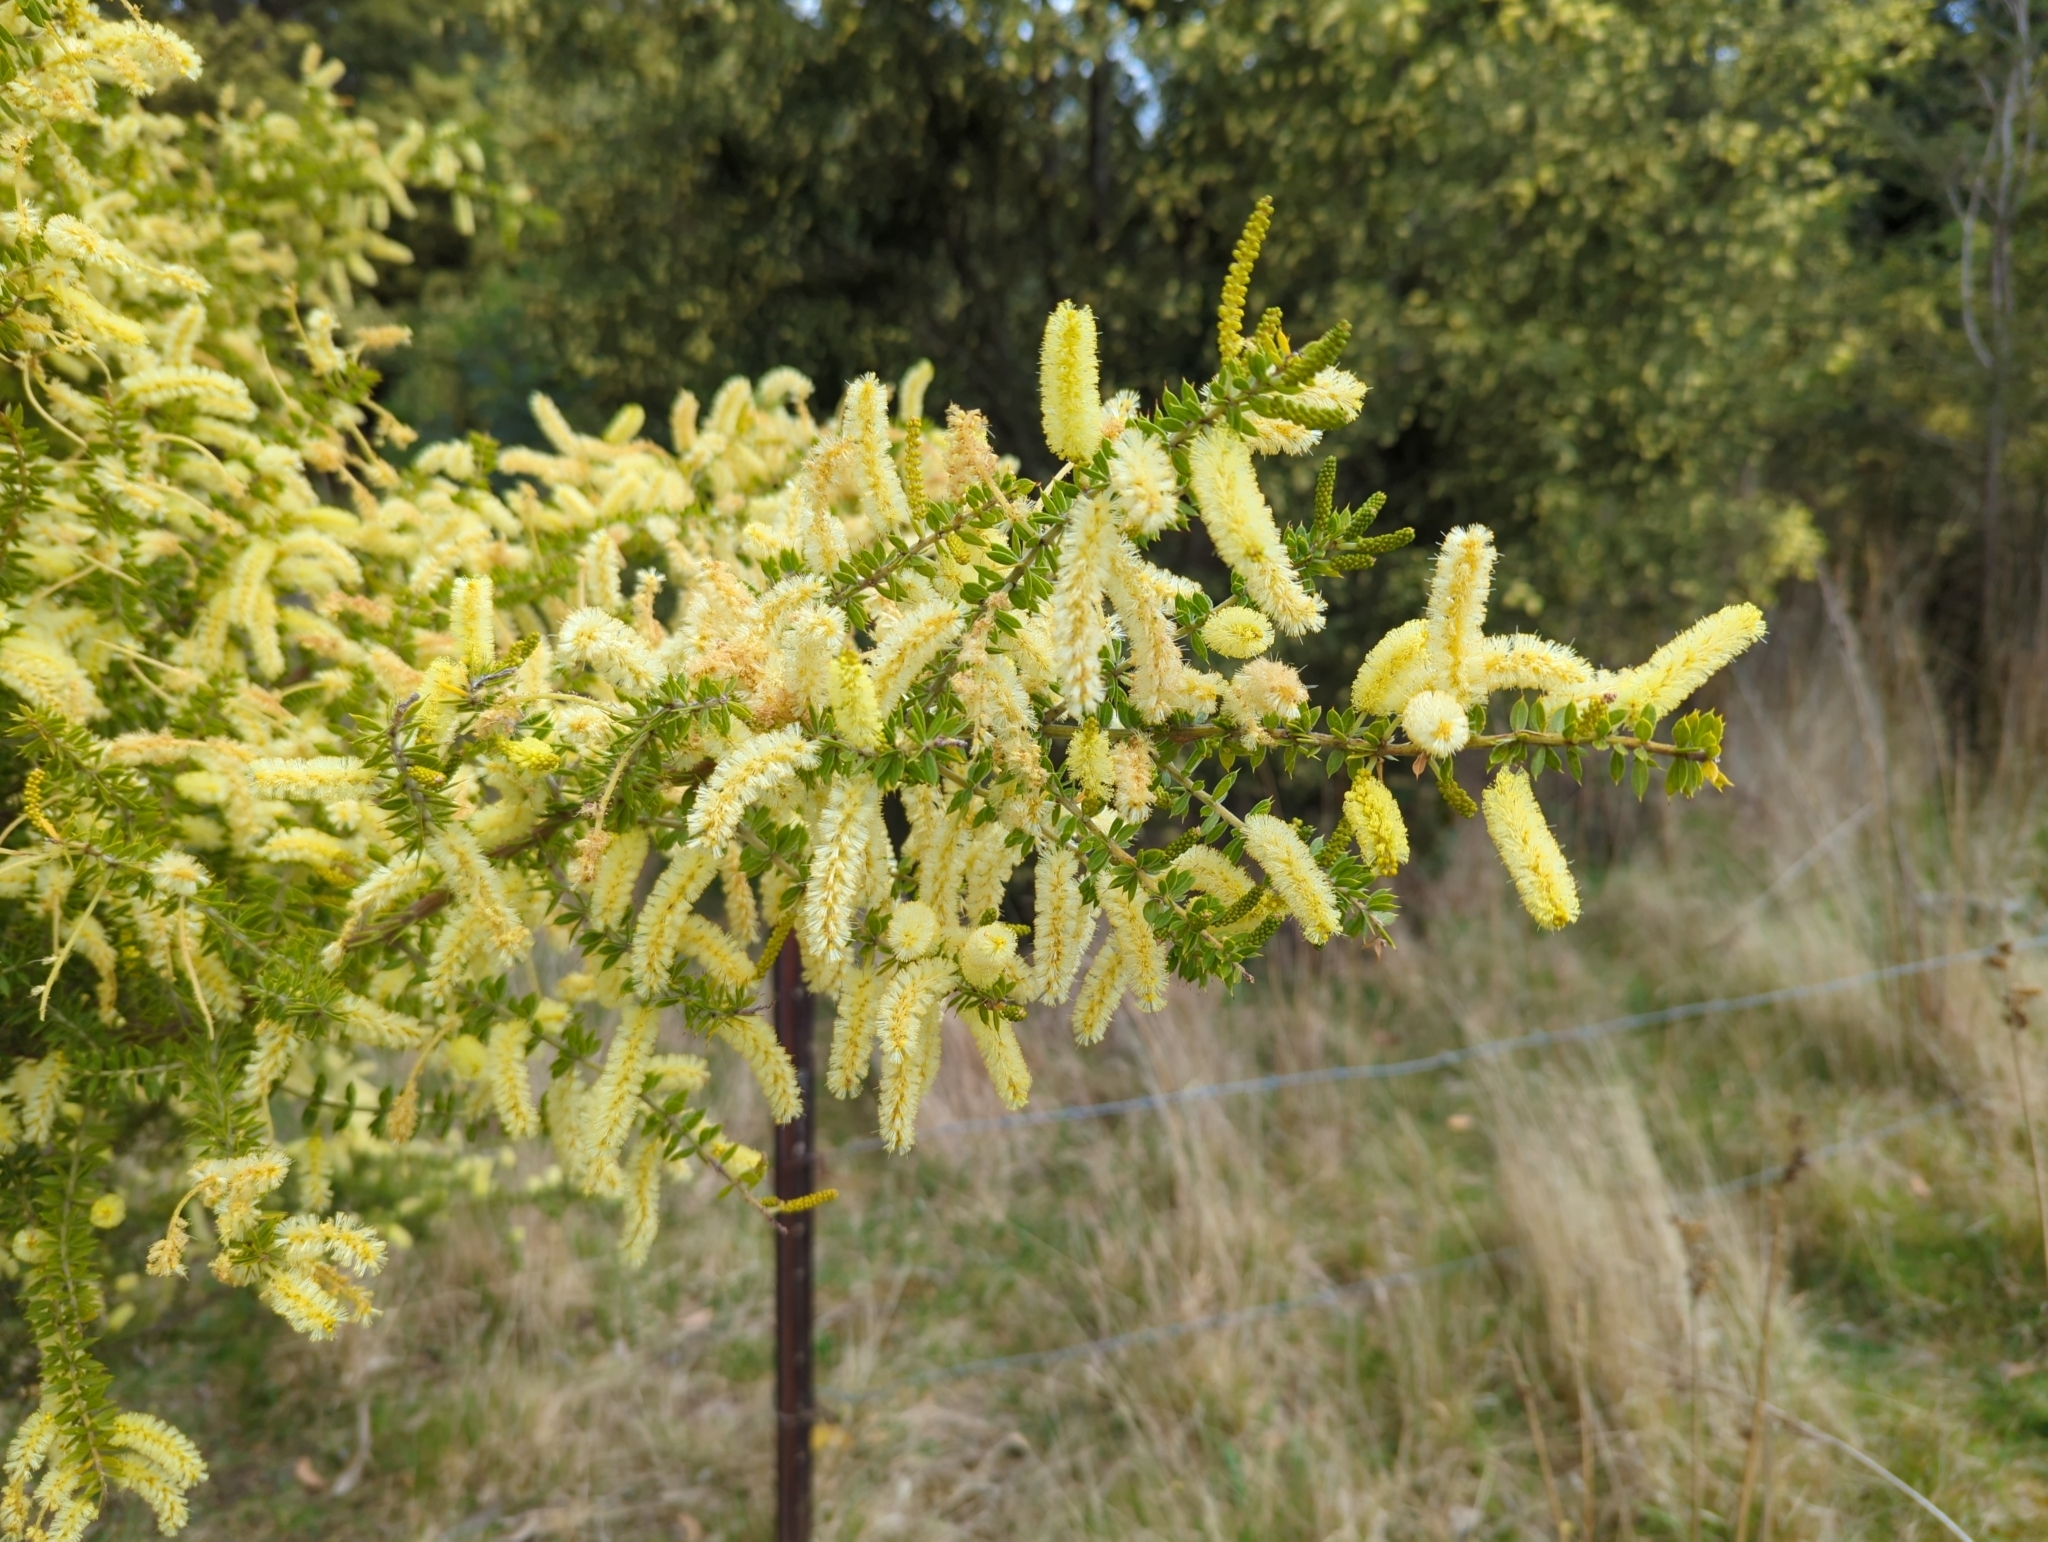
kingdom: Plantae
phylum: Tracheophyta
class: Magnoliopsida
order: Fabales
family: Fabaceae
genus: Acacia
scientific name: Acacia verticillata
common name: Prickly moses
